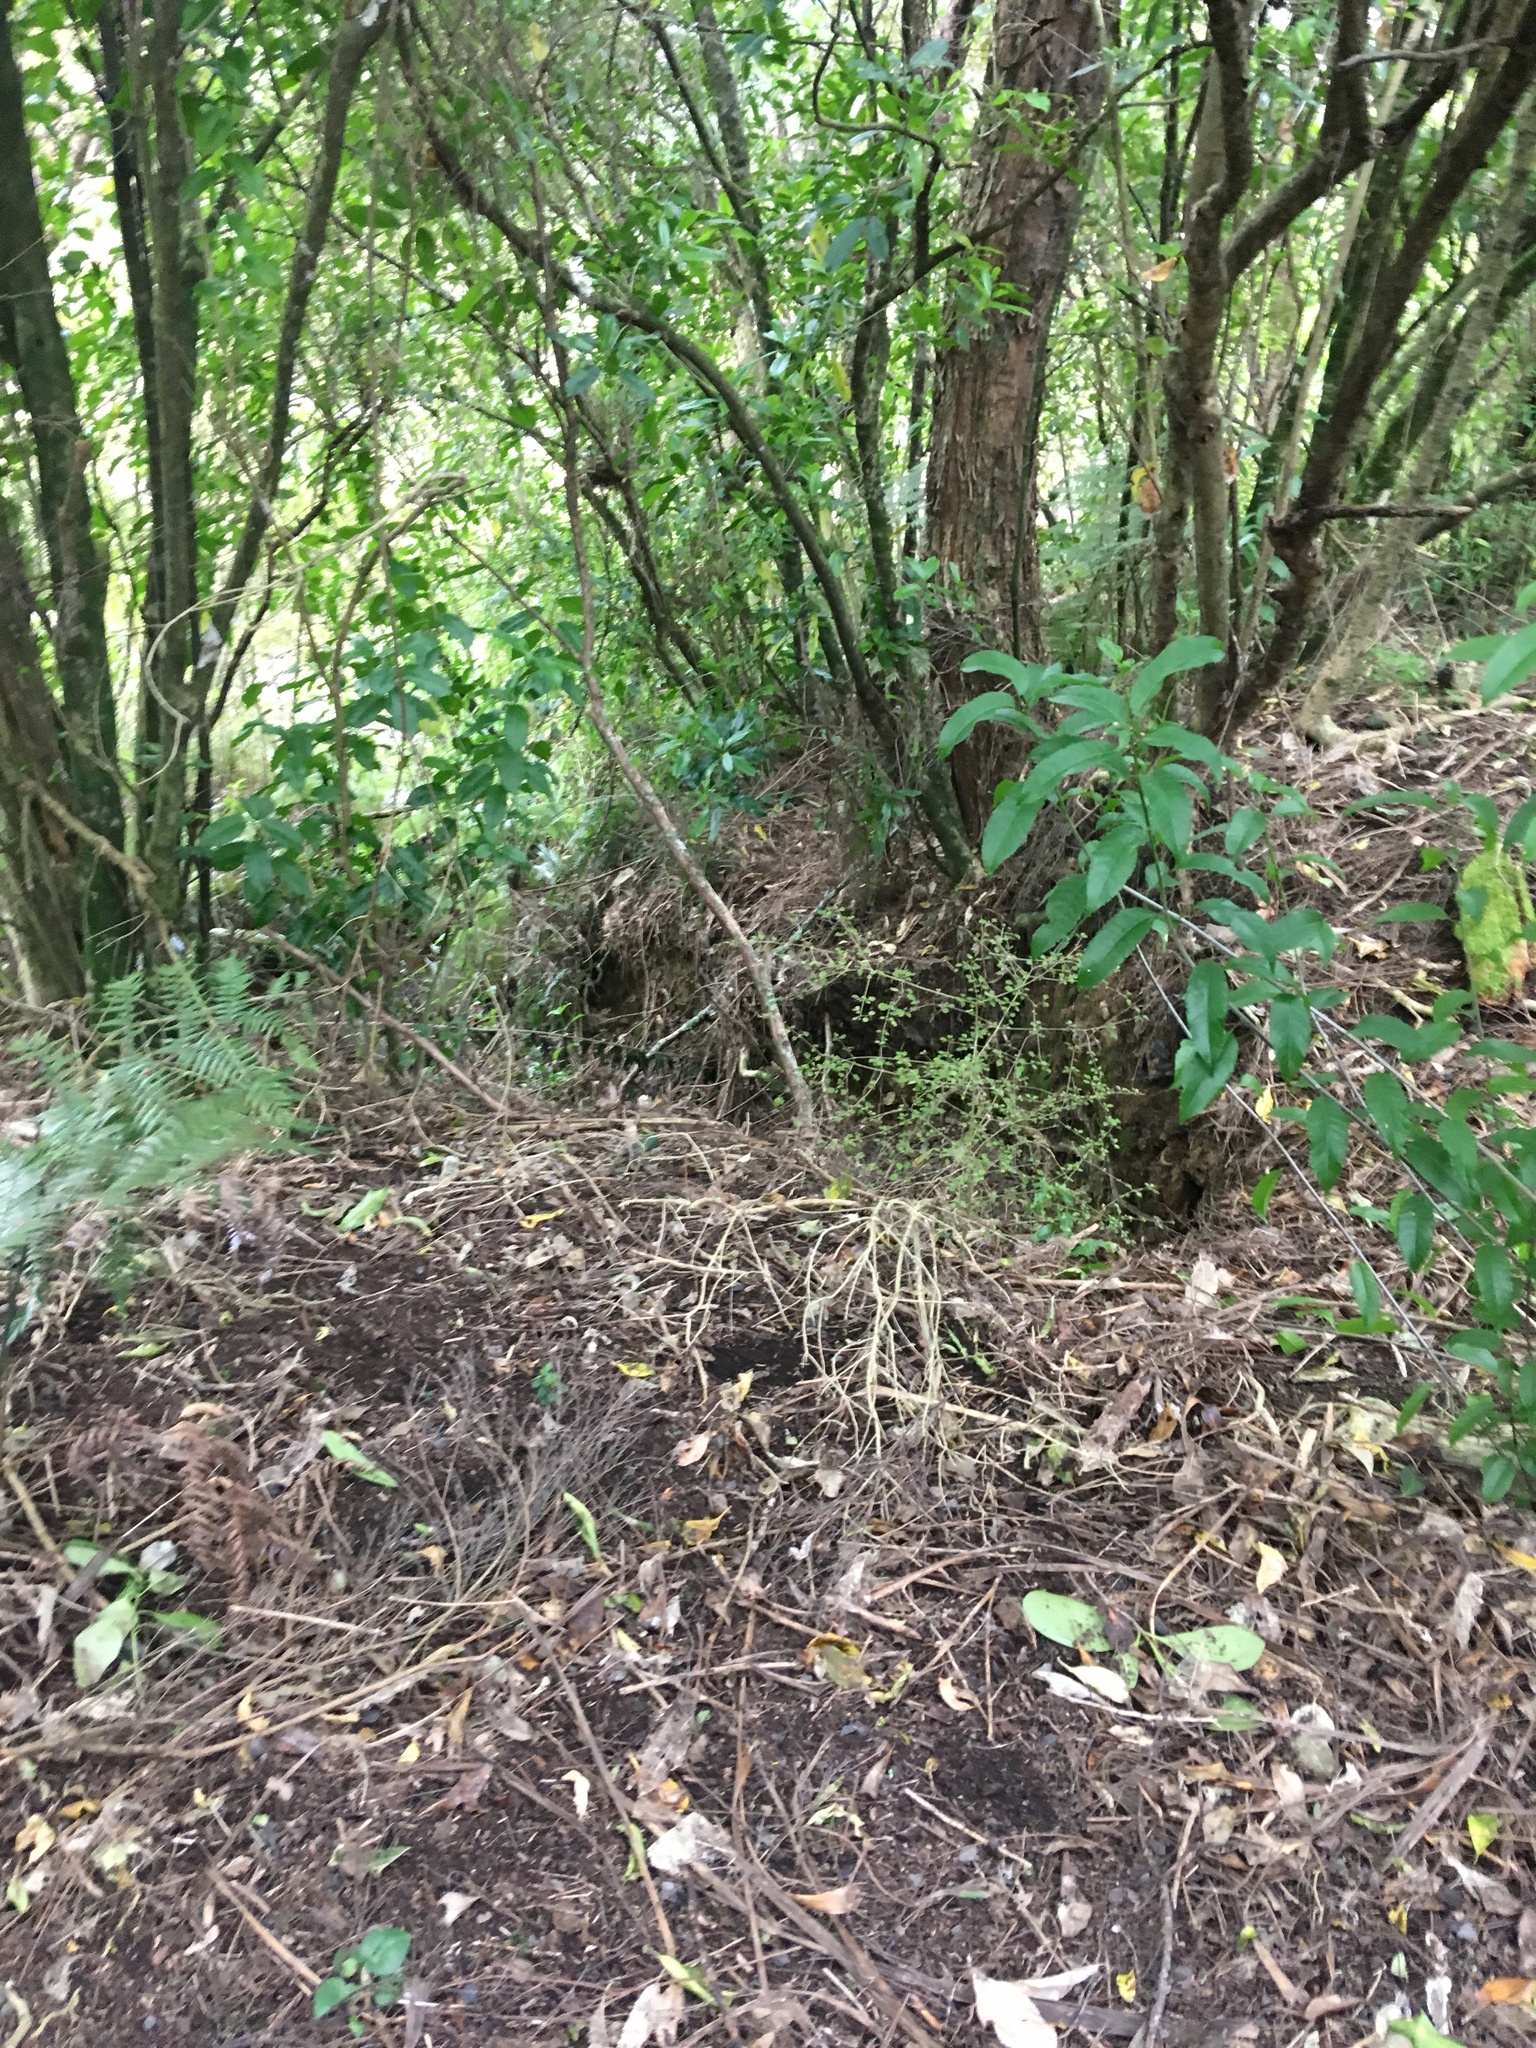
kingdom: Plantae
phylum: Tracheophyta
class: Magnoliopsida
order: Gentianales
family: Rubiaceae
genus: Coprosma
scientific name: Coprosma areolata
